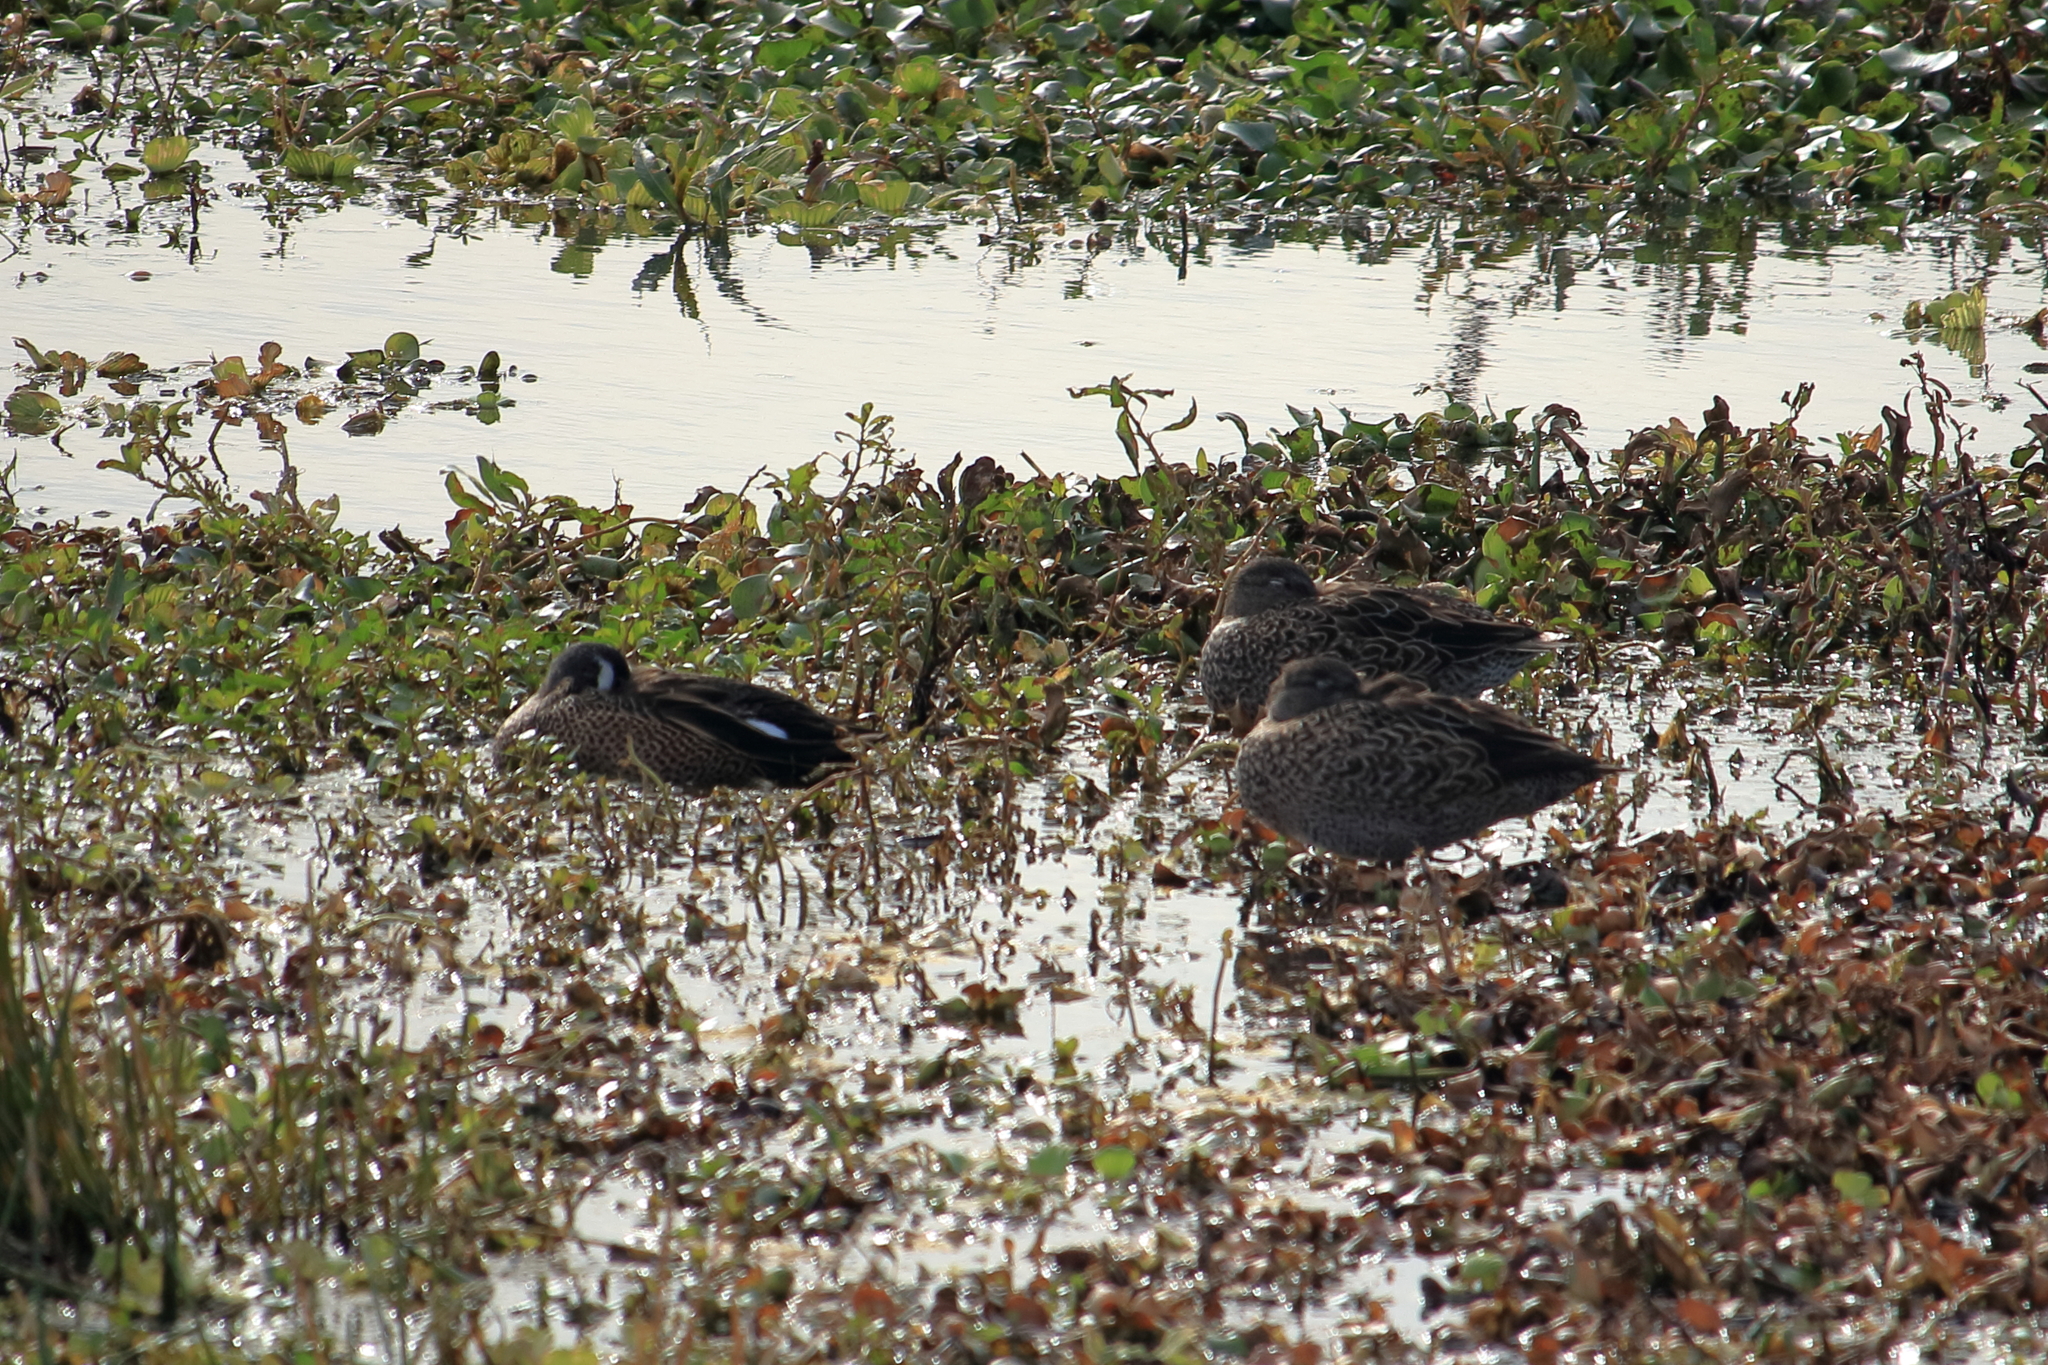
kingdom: Animalia
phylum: Chordata
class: Aves
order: Anseriformes
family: Anatidae
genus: Spatula
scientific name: Spatula discors
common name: Blue-winged teal
